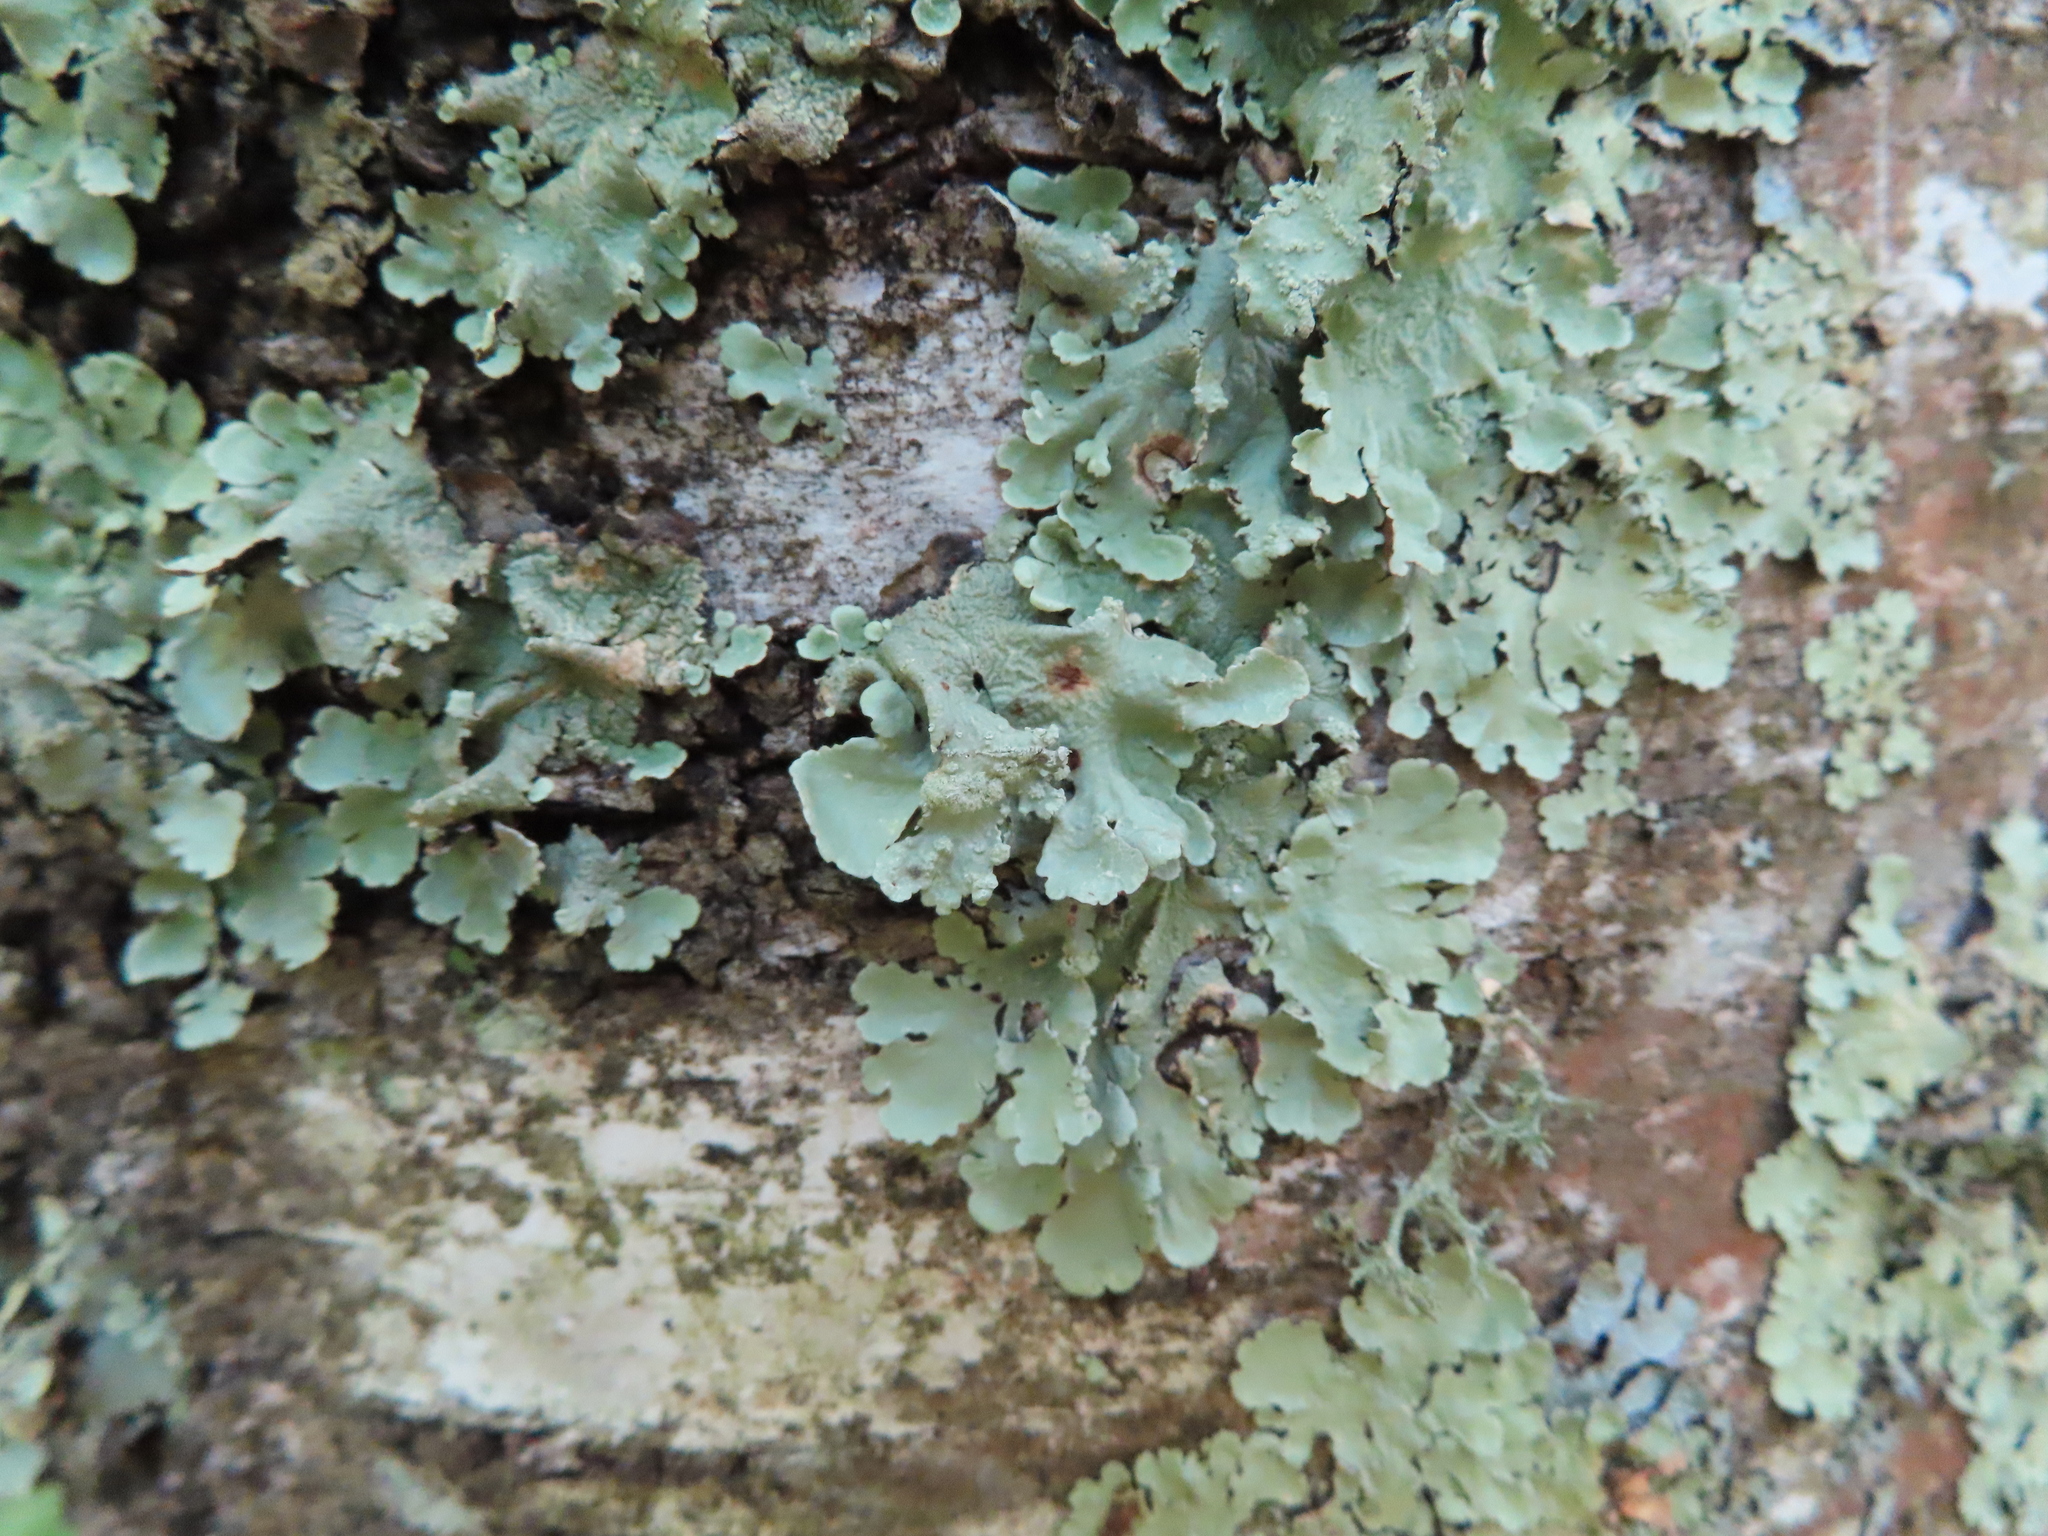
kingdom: Fungi
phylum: Ascomycota
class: Lecanoromycetes
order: Lecanorales
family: Parmeliaceae
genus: Flavoparmelia
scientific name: Flavoparmelia caperata
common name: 40-mile per hour lichen
